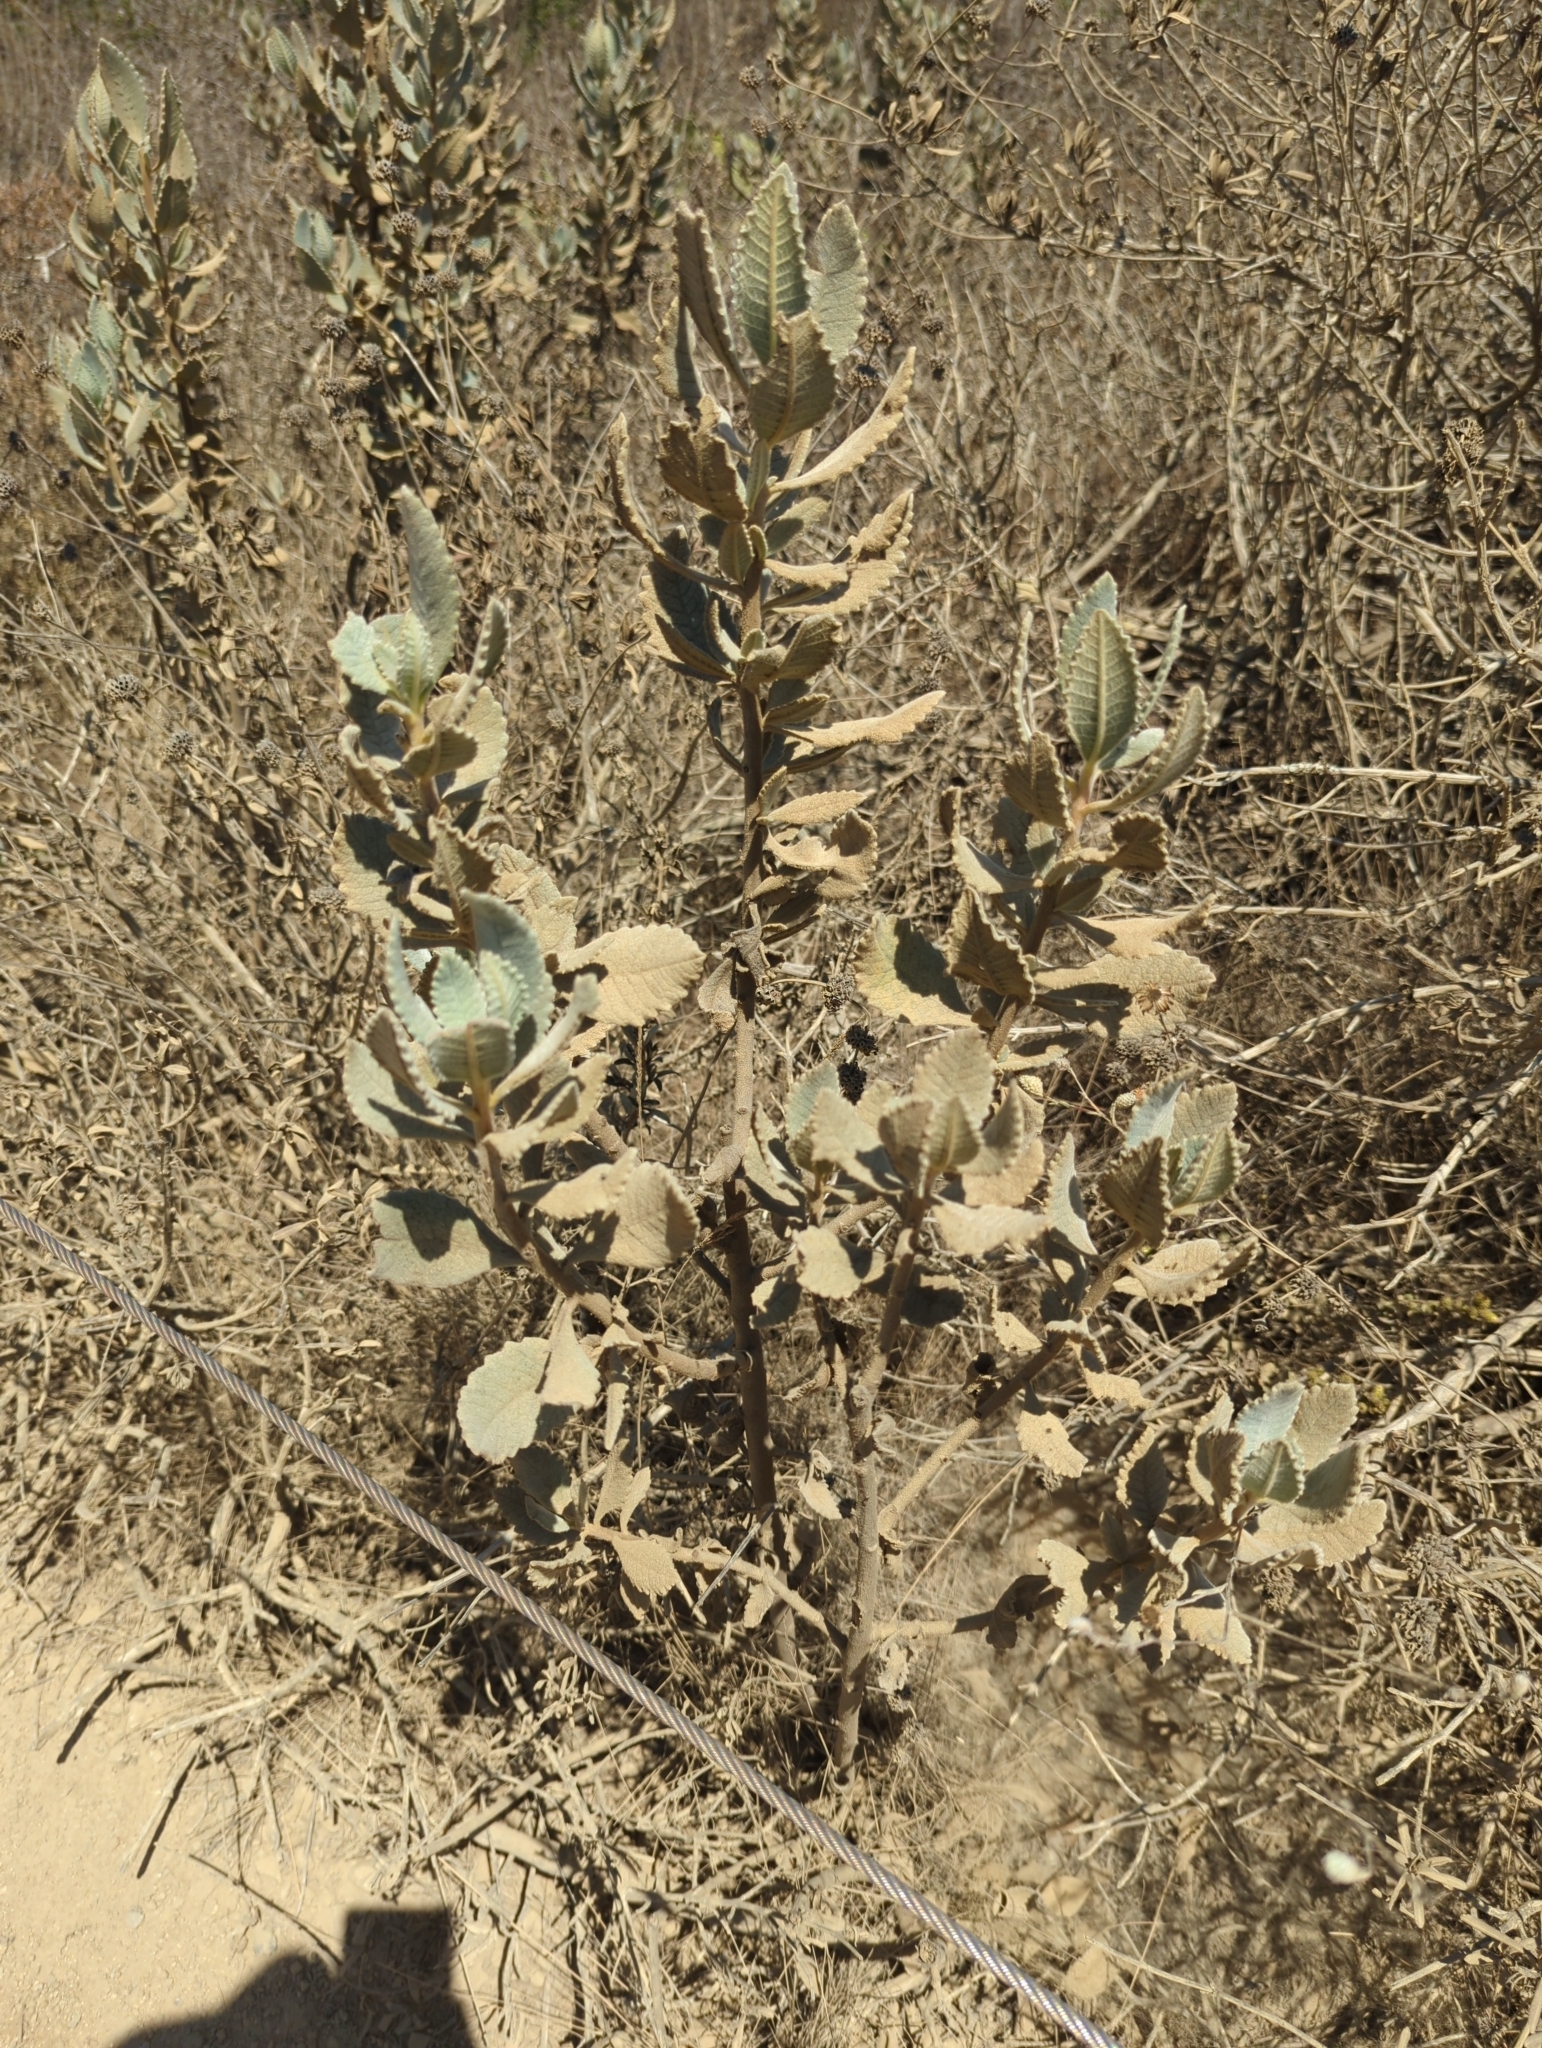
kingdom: Plantae
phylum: Tracheophyta
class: Magnoliopsida
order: Boraginales
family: Namaceae
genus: Eriodictyon
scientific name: Eriodictyon crassifolium
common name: Thick-leaf yerba-santa
